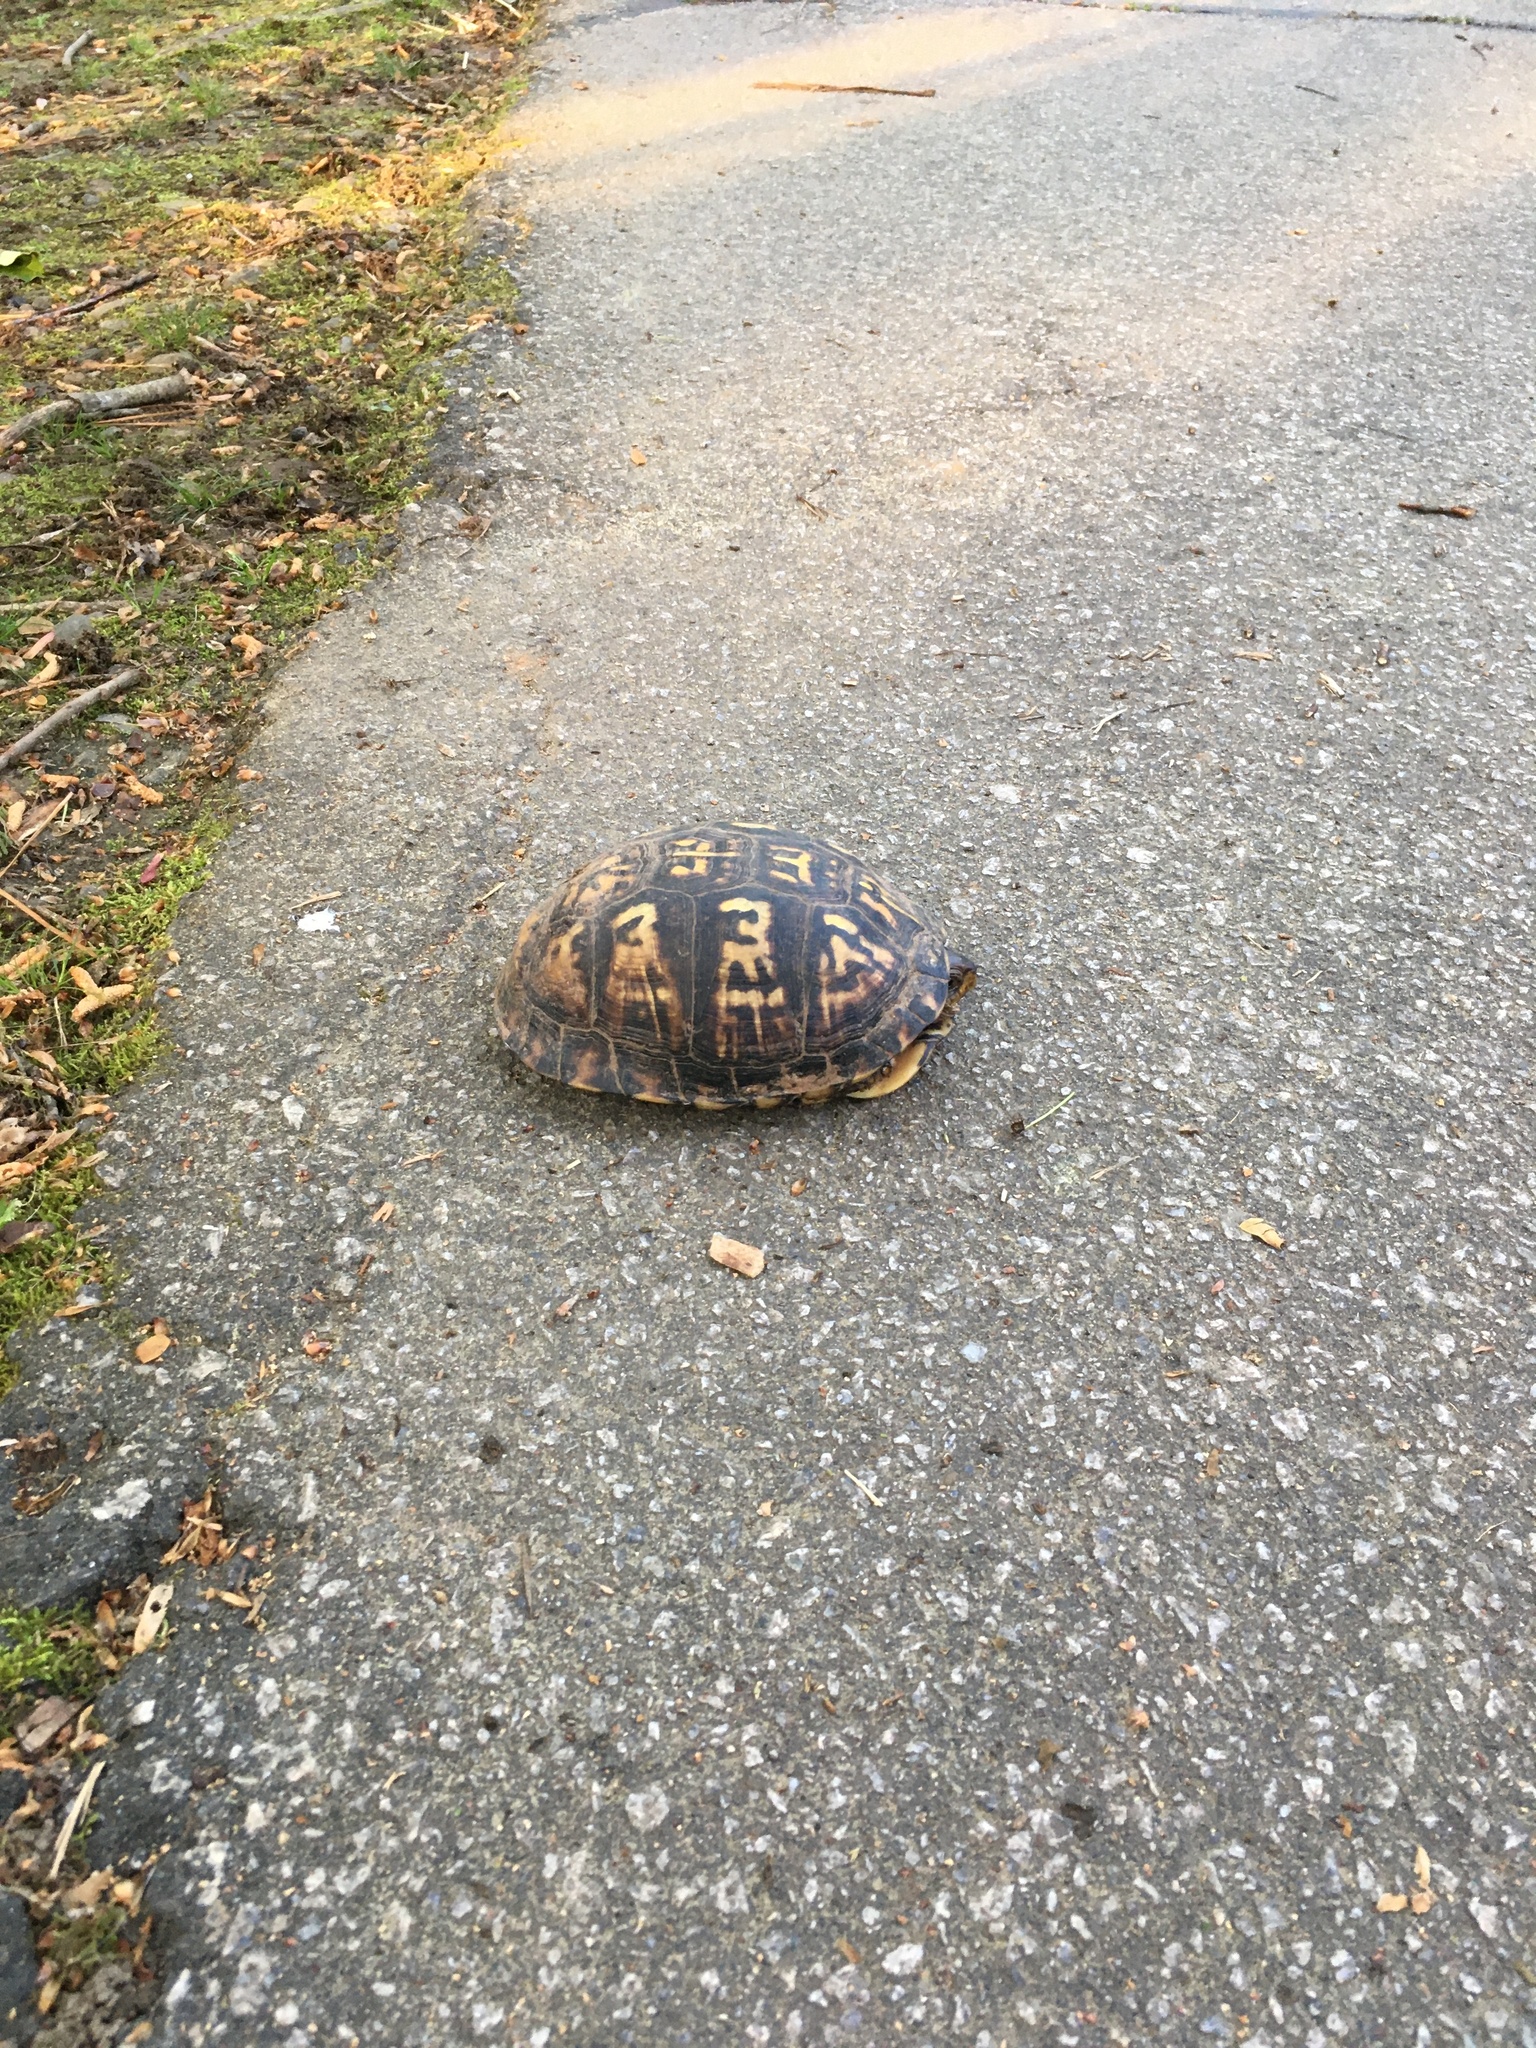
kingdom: Animalia
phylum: Chordata
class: Testudines
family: Emydidae
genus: Terrapene
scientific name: Terrapene carolina
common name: Common box turtle
